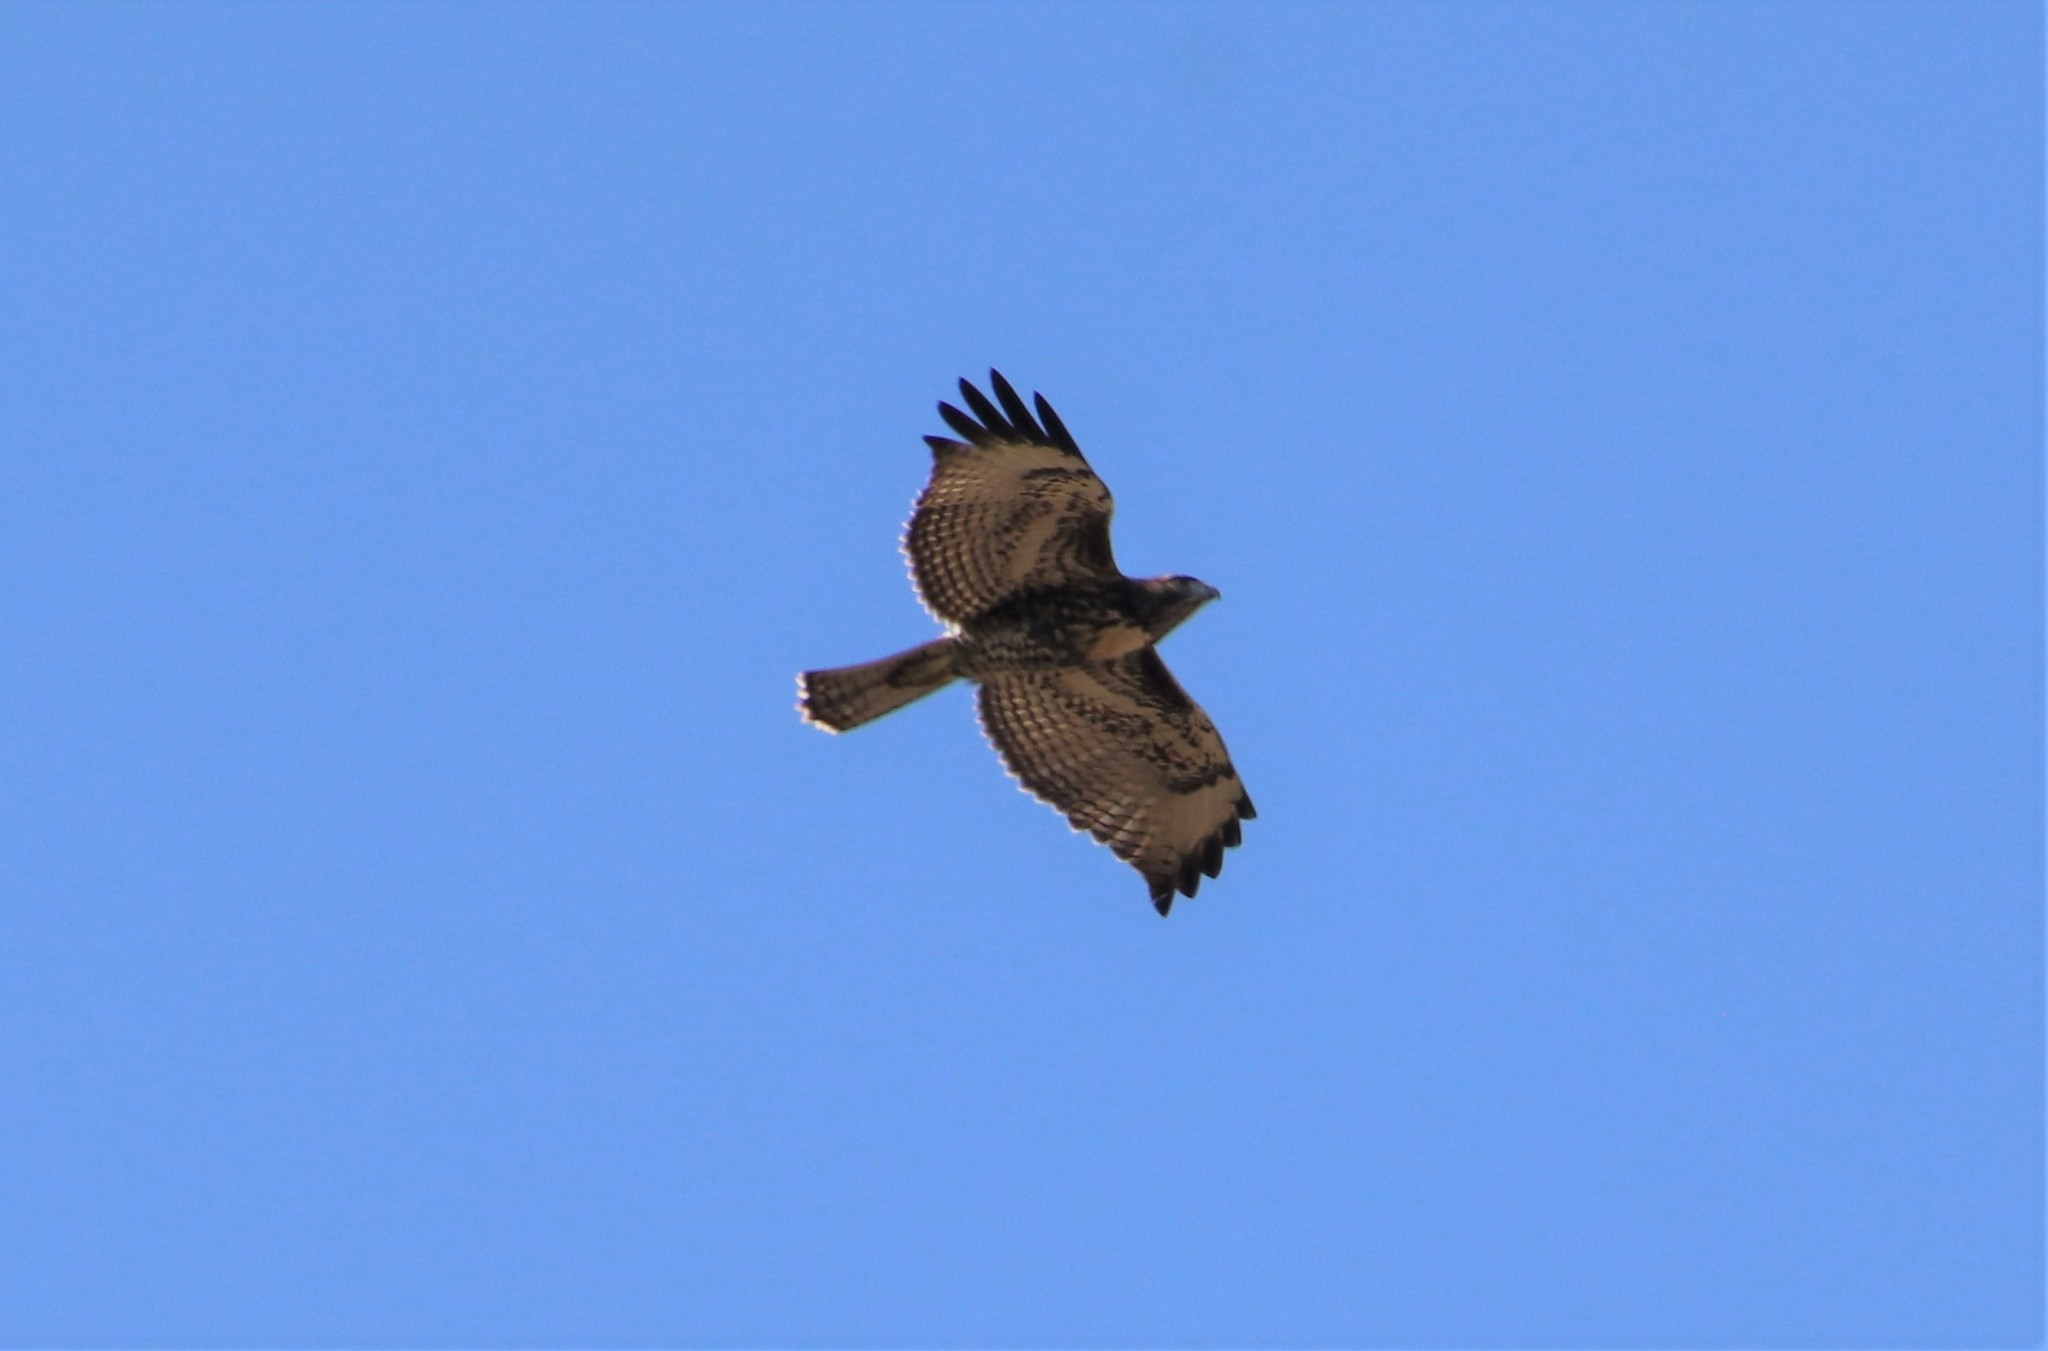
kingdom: Animalia
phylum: Chordata
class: Aves
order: Accipitriformes
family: Accipitridae
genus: Buteo
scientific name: Buteo jamaicensis
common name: Red-tailed hawk
